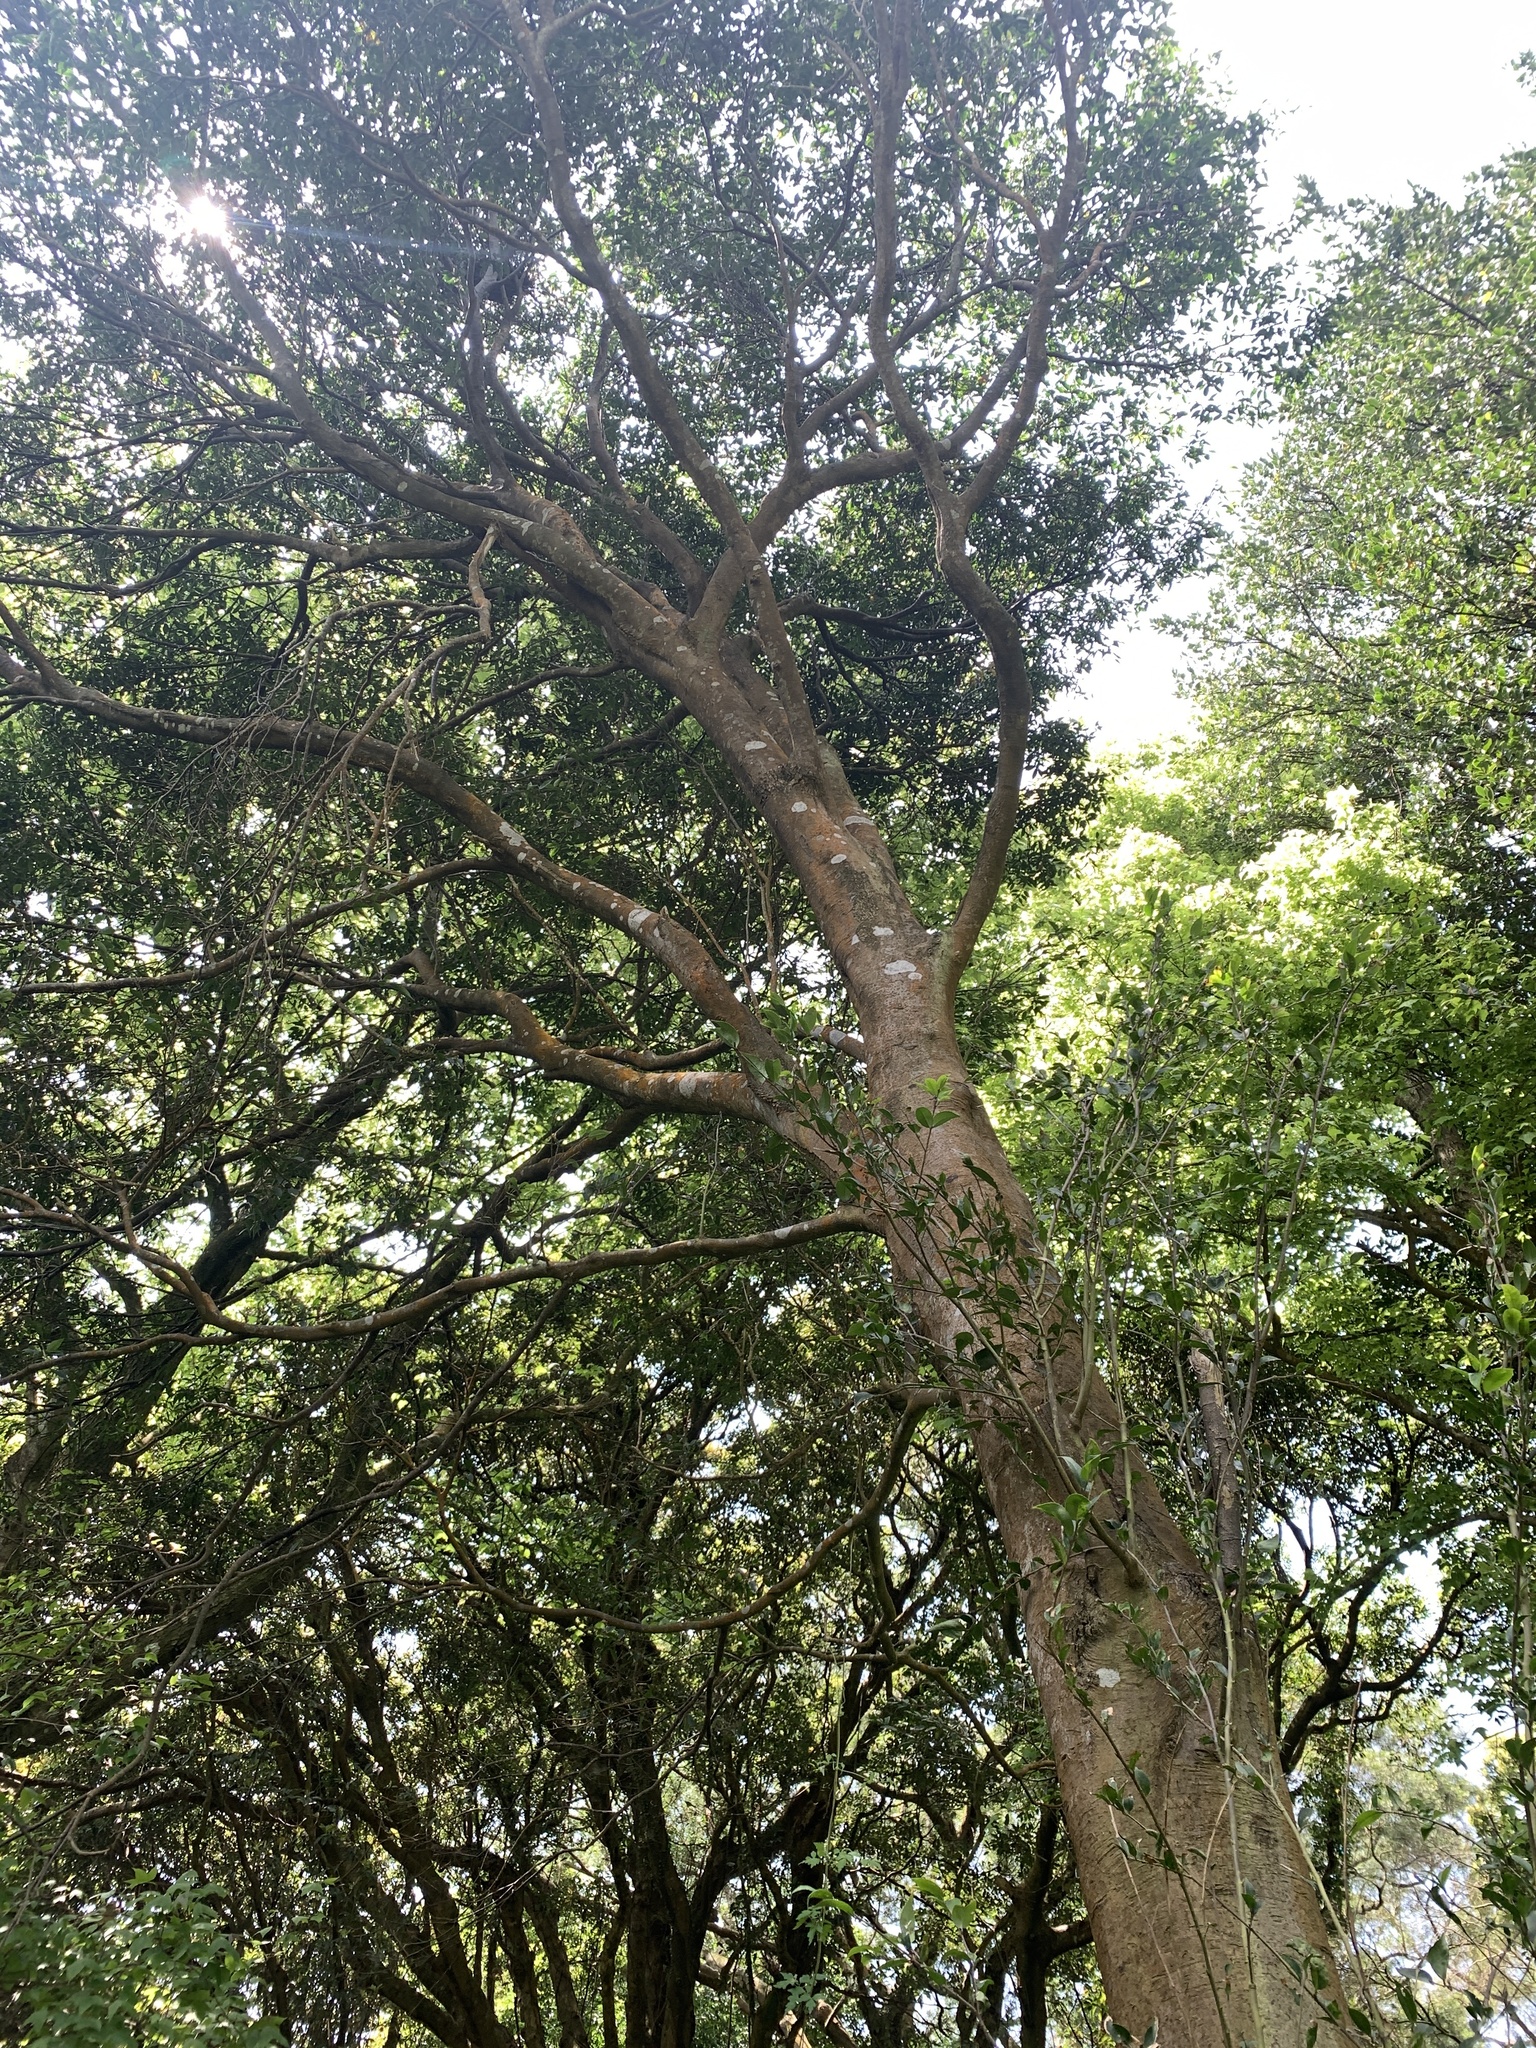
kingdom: Plantae
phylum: Tracheophyta
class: Magnoliopsida
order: Ericales
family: Symplocaceae
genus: Symplocos
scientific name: Symplocos sumuntia
